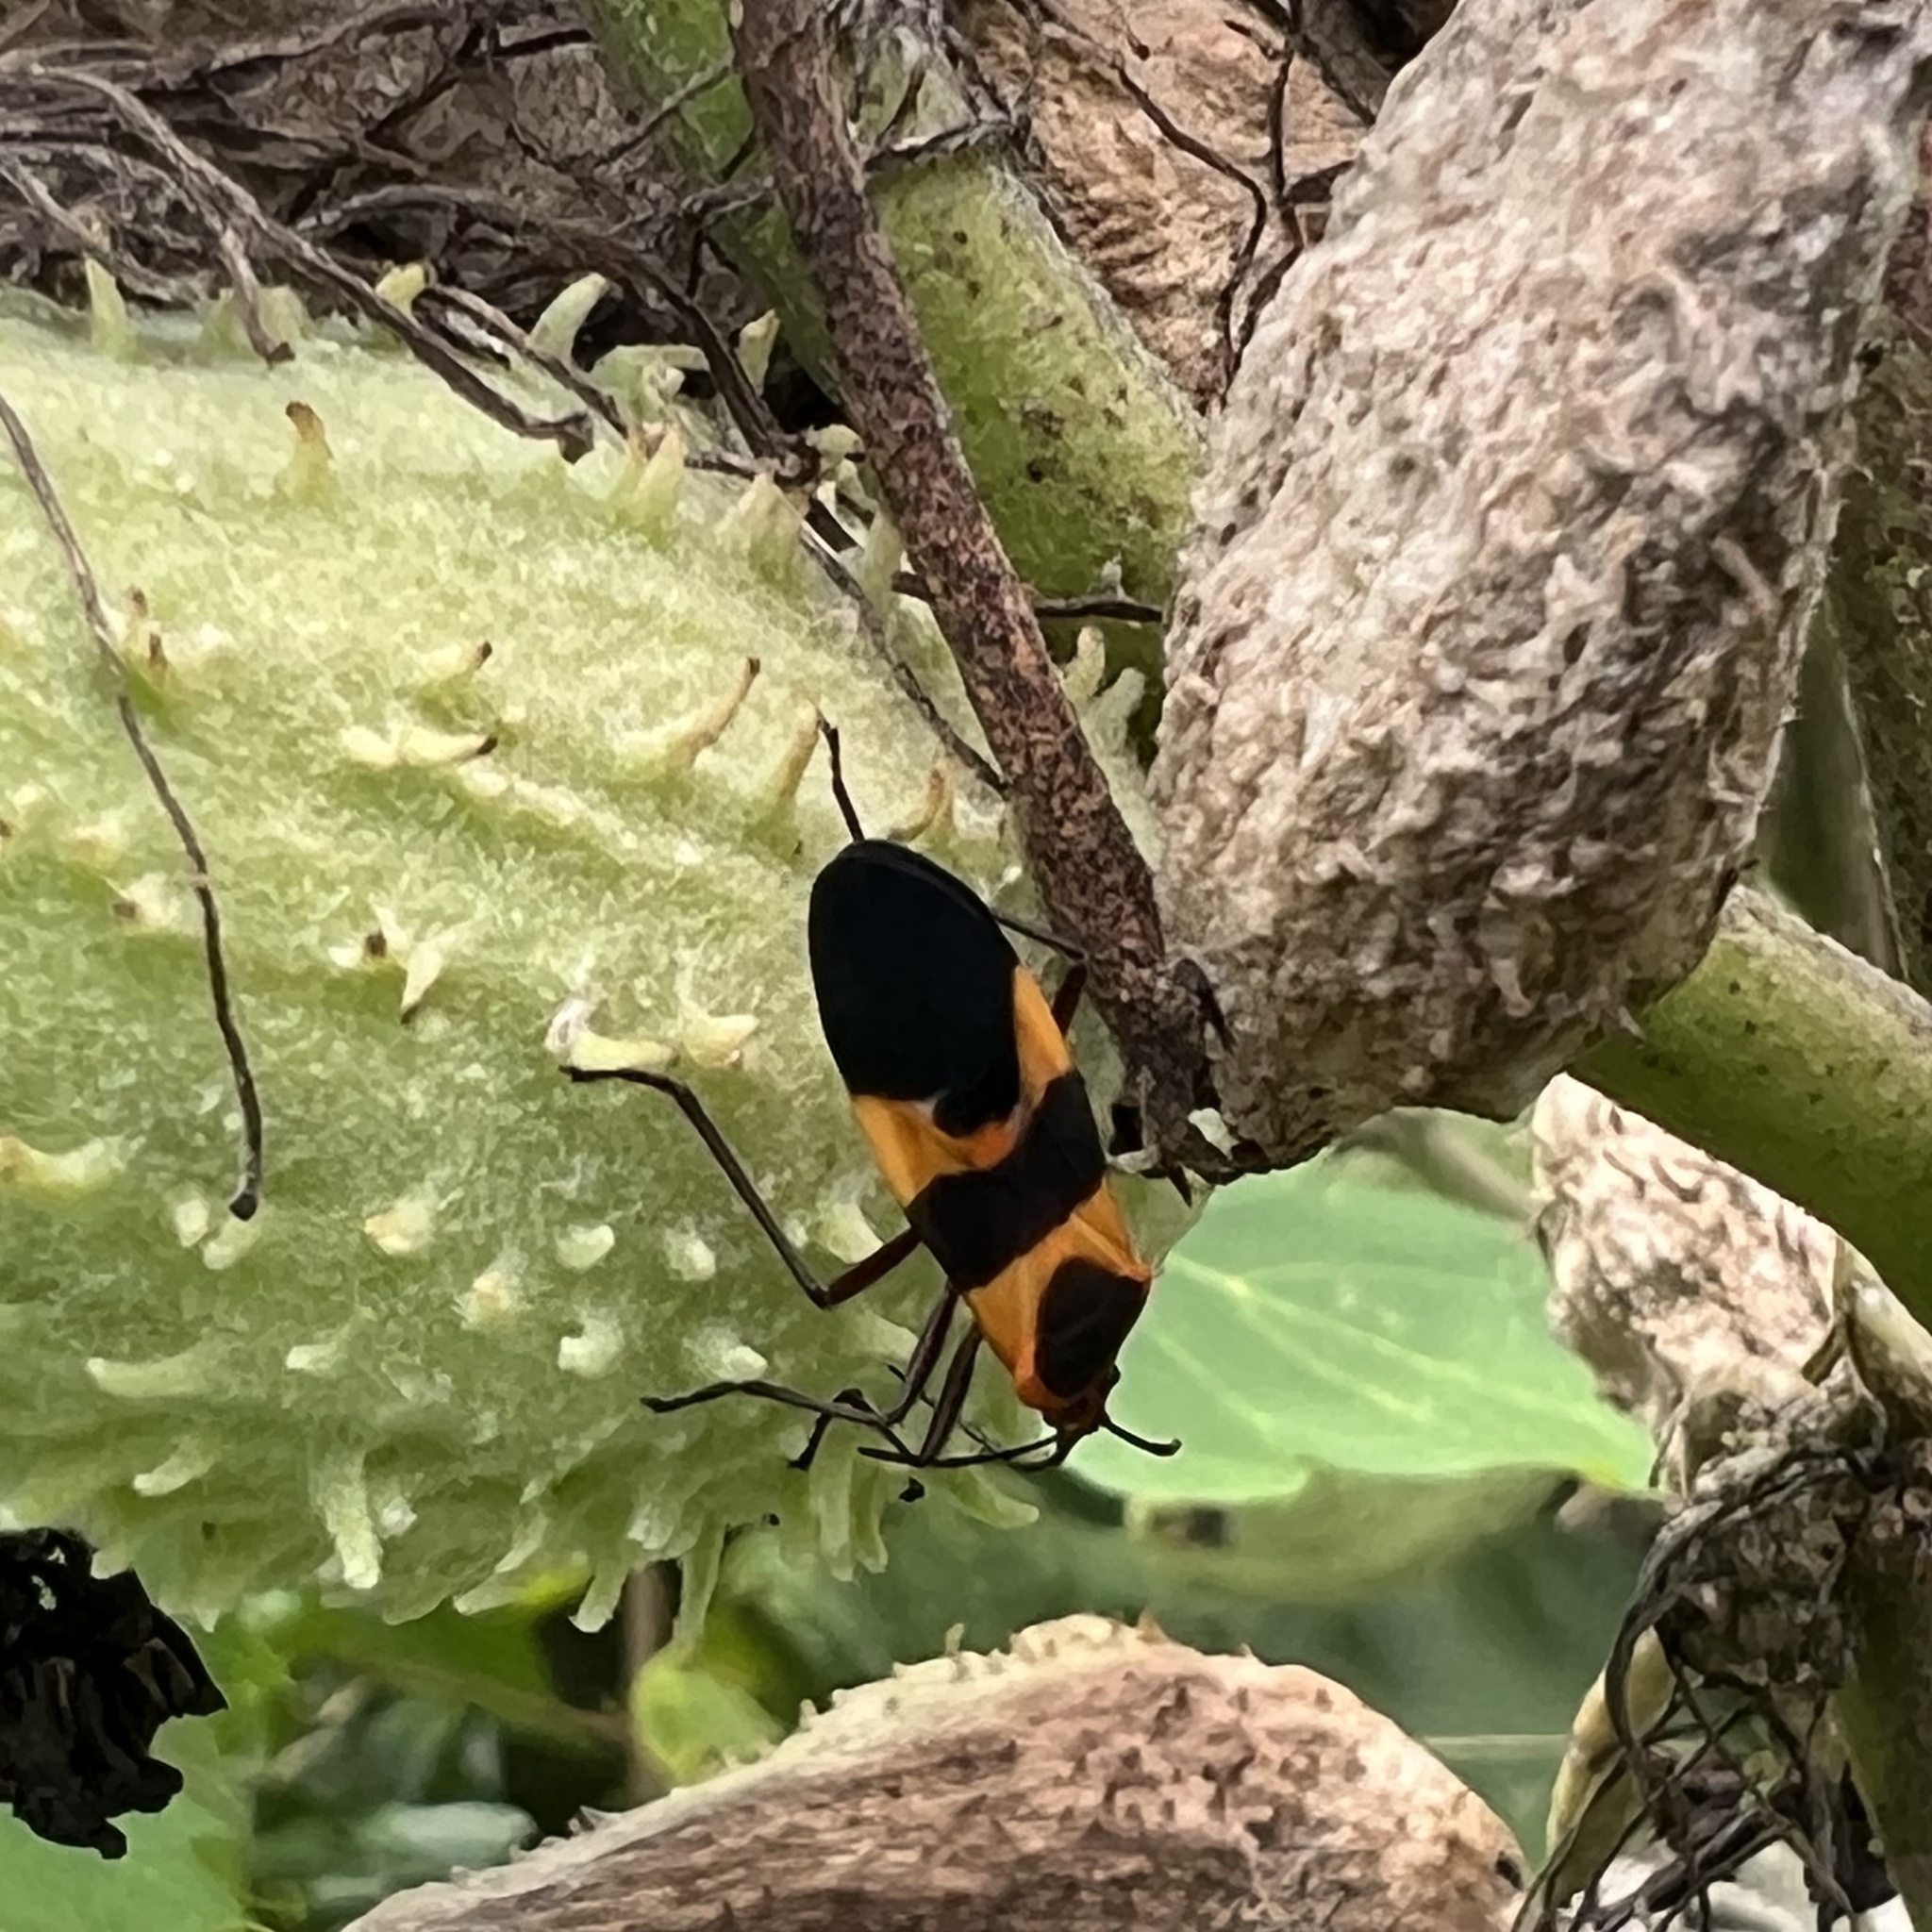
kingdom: Animalia
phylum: Arthropoda
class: Insecta
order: Hemiptera
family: Lygaeidae
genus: Oncopeltus
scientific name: Oncopeltus fasciatus
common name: Large milkweed bug
